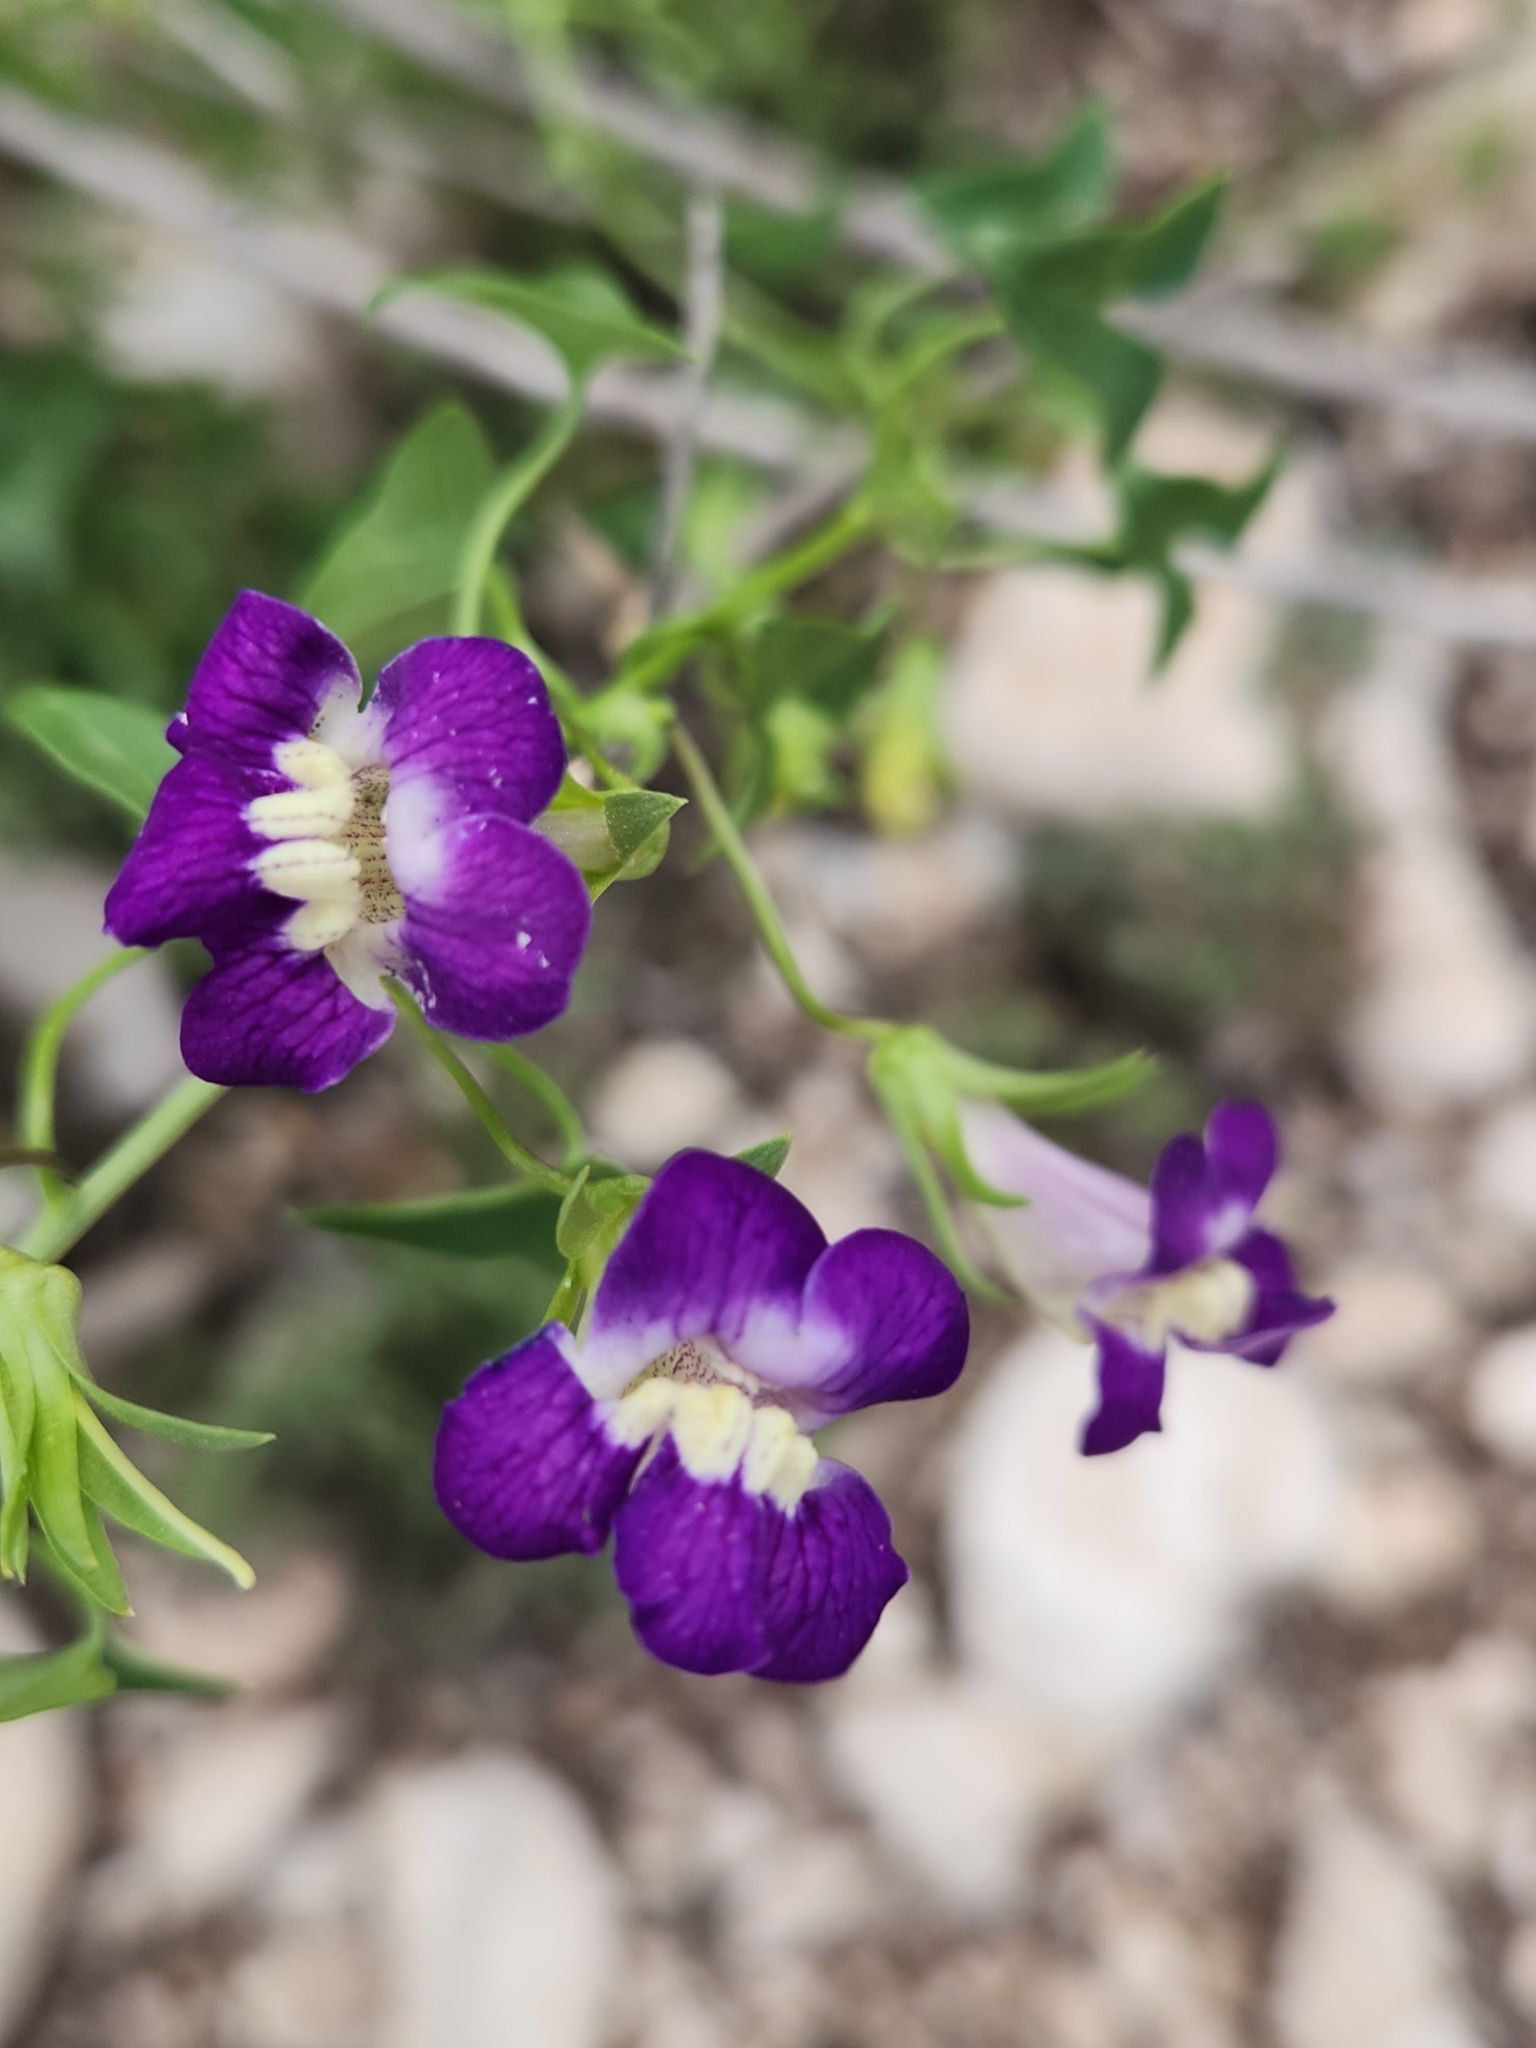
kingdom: Plantae
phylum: Tracheophyta
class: Magnoliopsida
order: Lamiales
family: Plantaginaceae
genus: Maurandella
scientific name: Maurandella antirrhiniflora
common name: Violet twining-snapdragon
